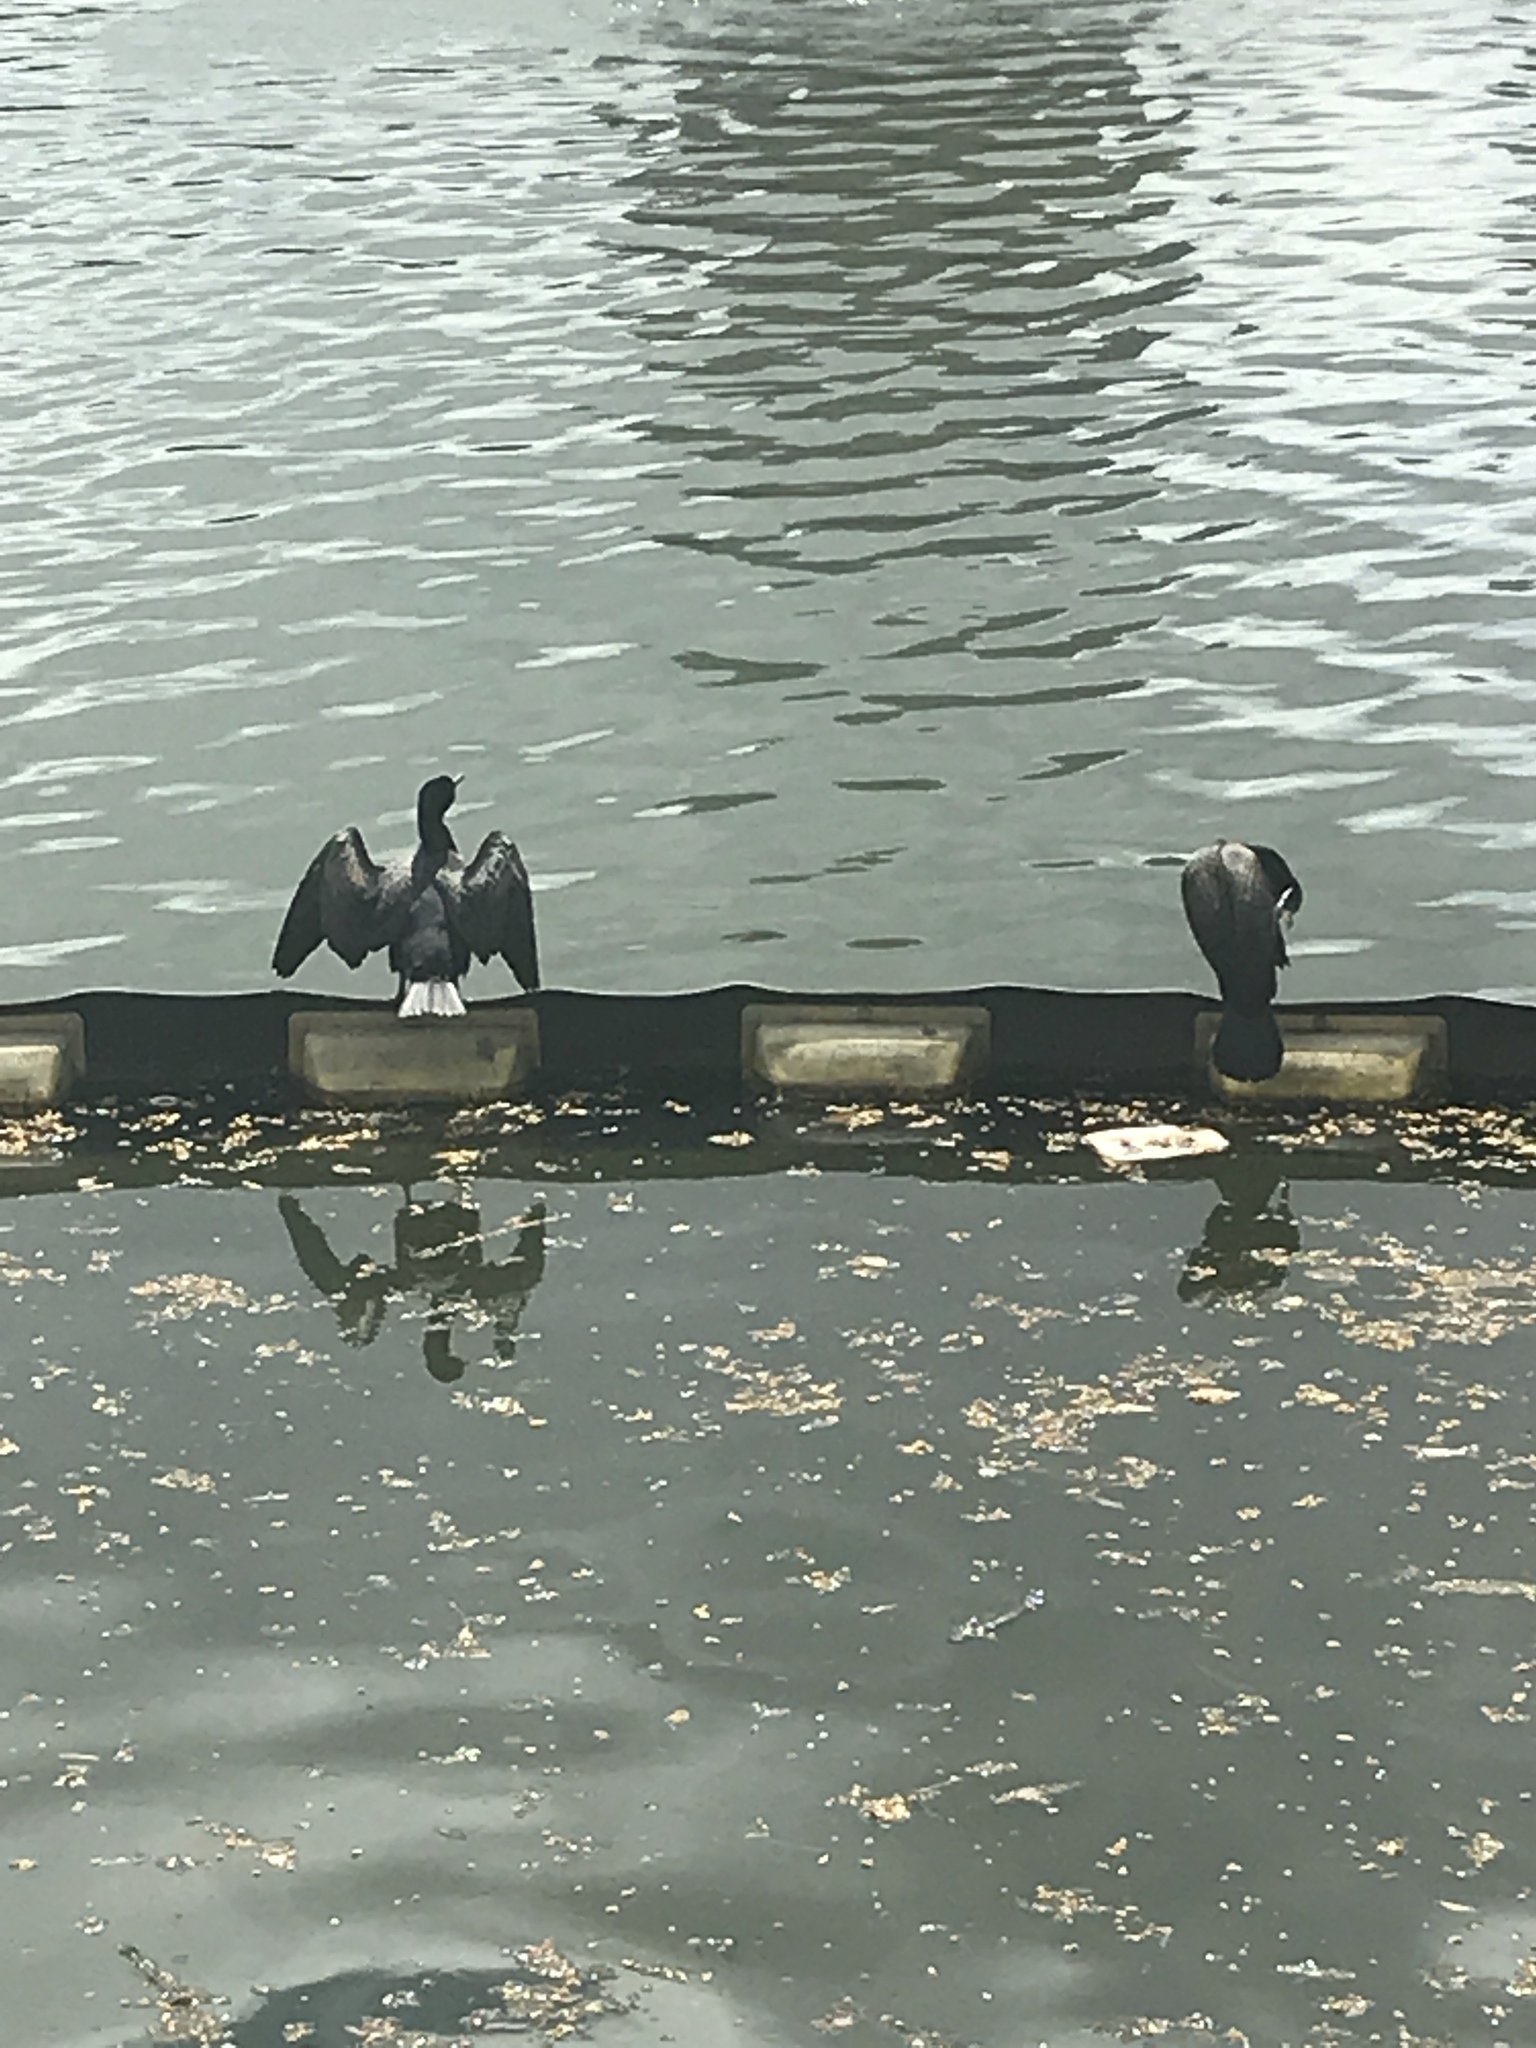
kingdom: Animalia
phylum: Chordata
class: Aves
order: Suliformes
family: Phalacrocoracidae
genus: Phalacrocorax
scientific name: Phalacrocorax auritus
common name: Double-crested cormorant
